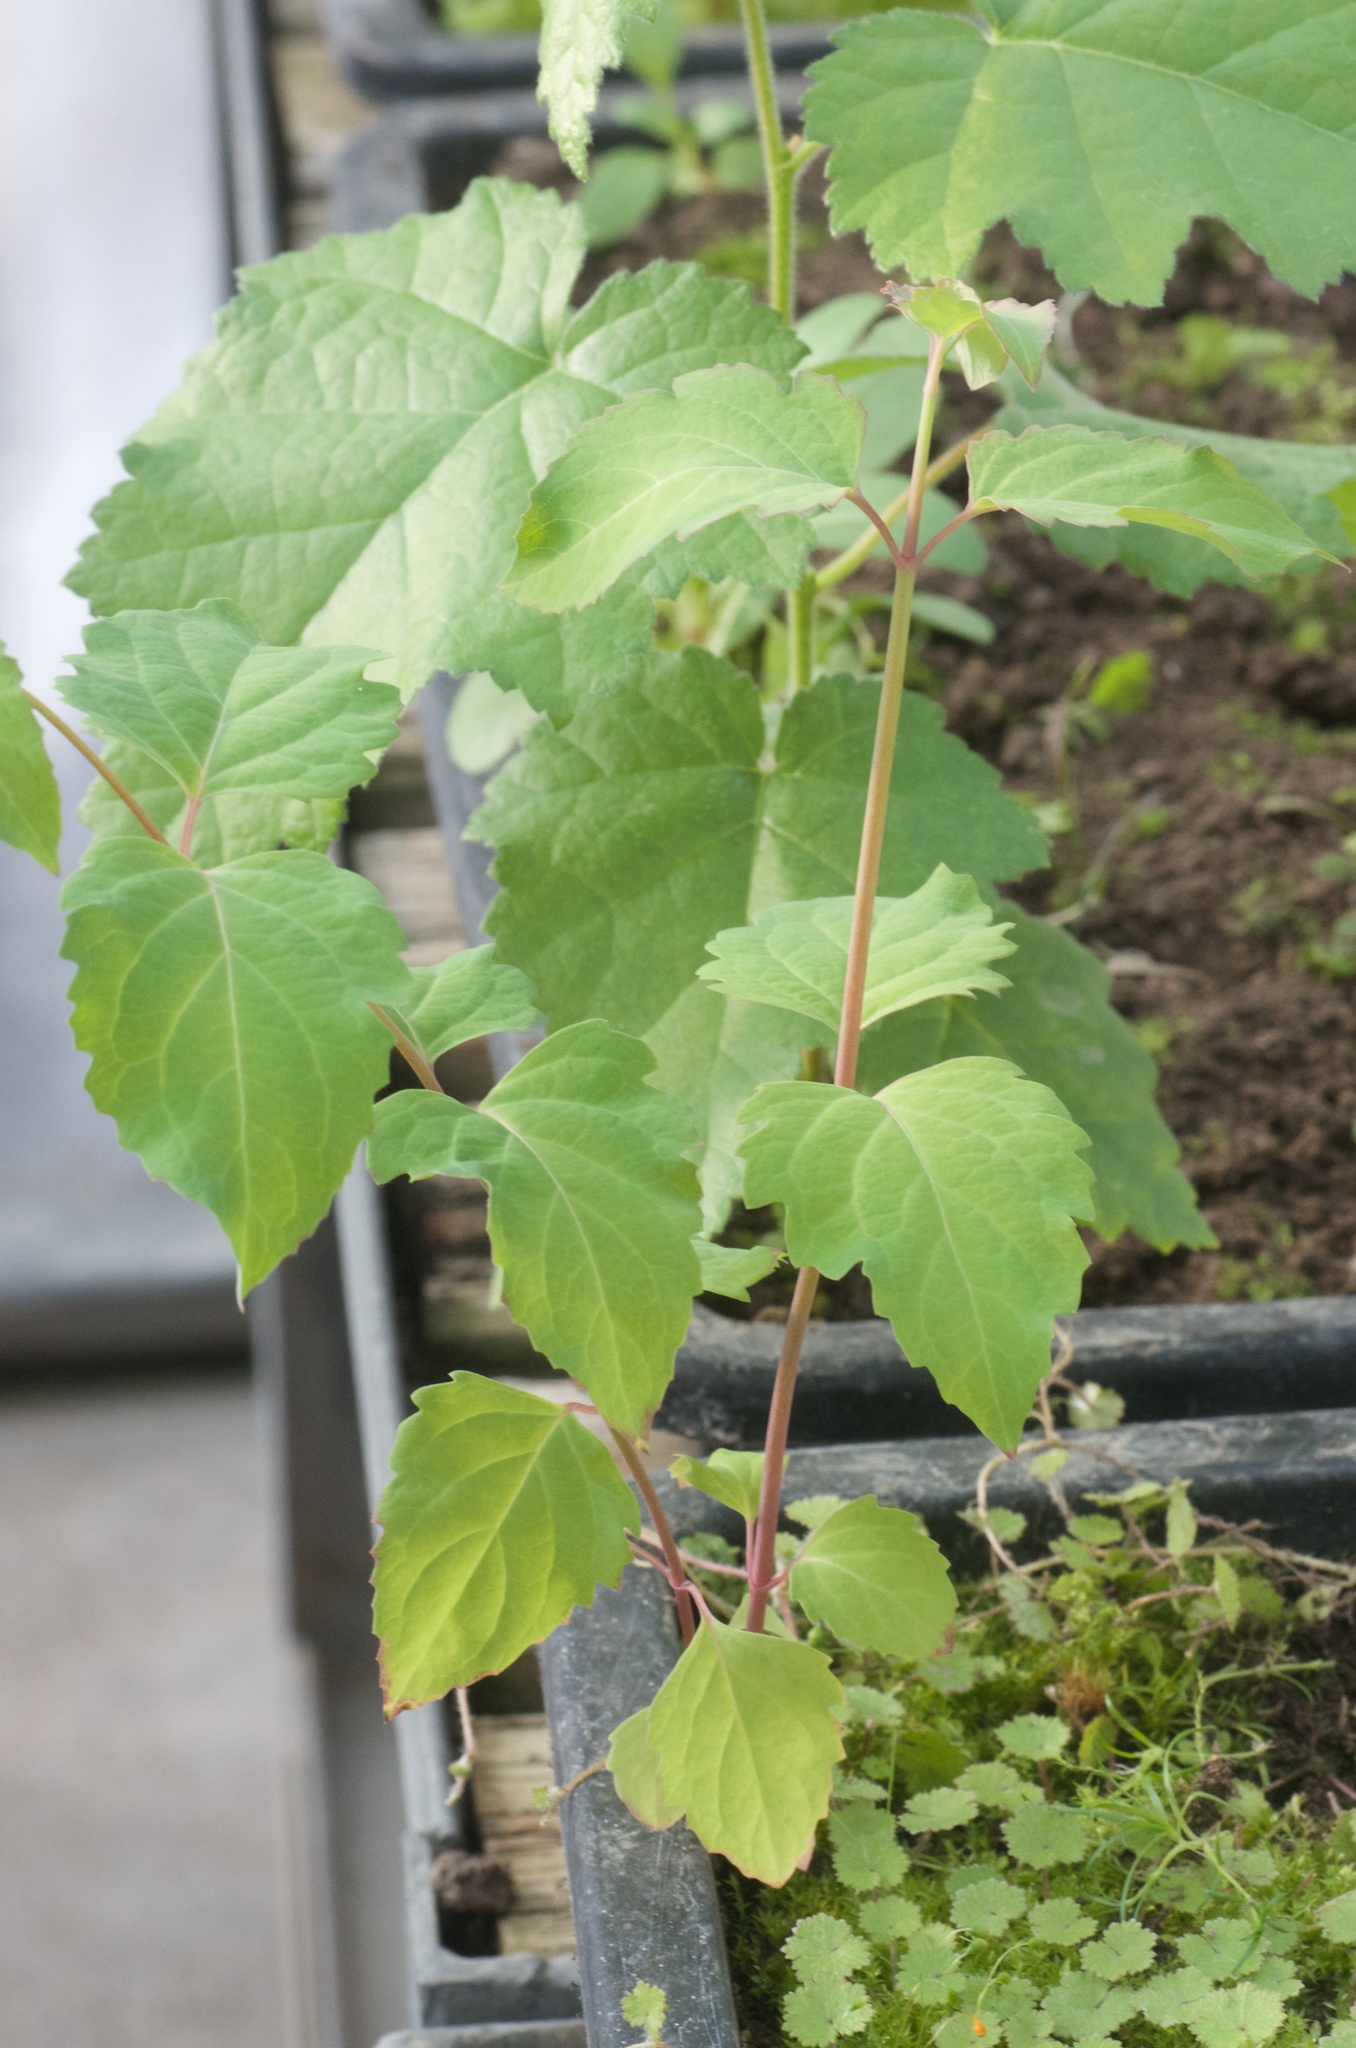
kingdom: Plantae
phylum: Tracheophyta
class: Magnoliopsida
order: Dipsacales
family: Caprifoliaceae
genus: Leycesteria
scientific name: Leycesteria formosa
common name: Himalayan honeysuckle
